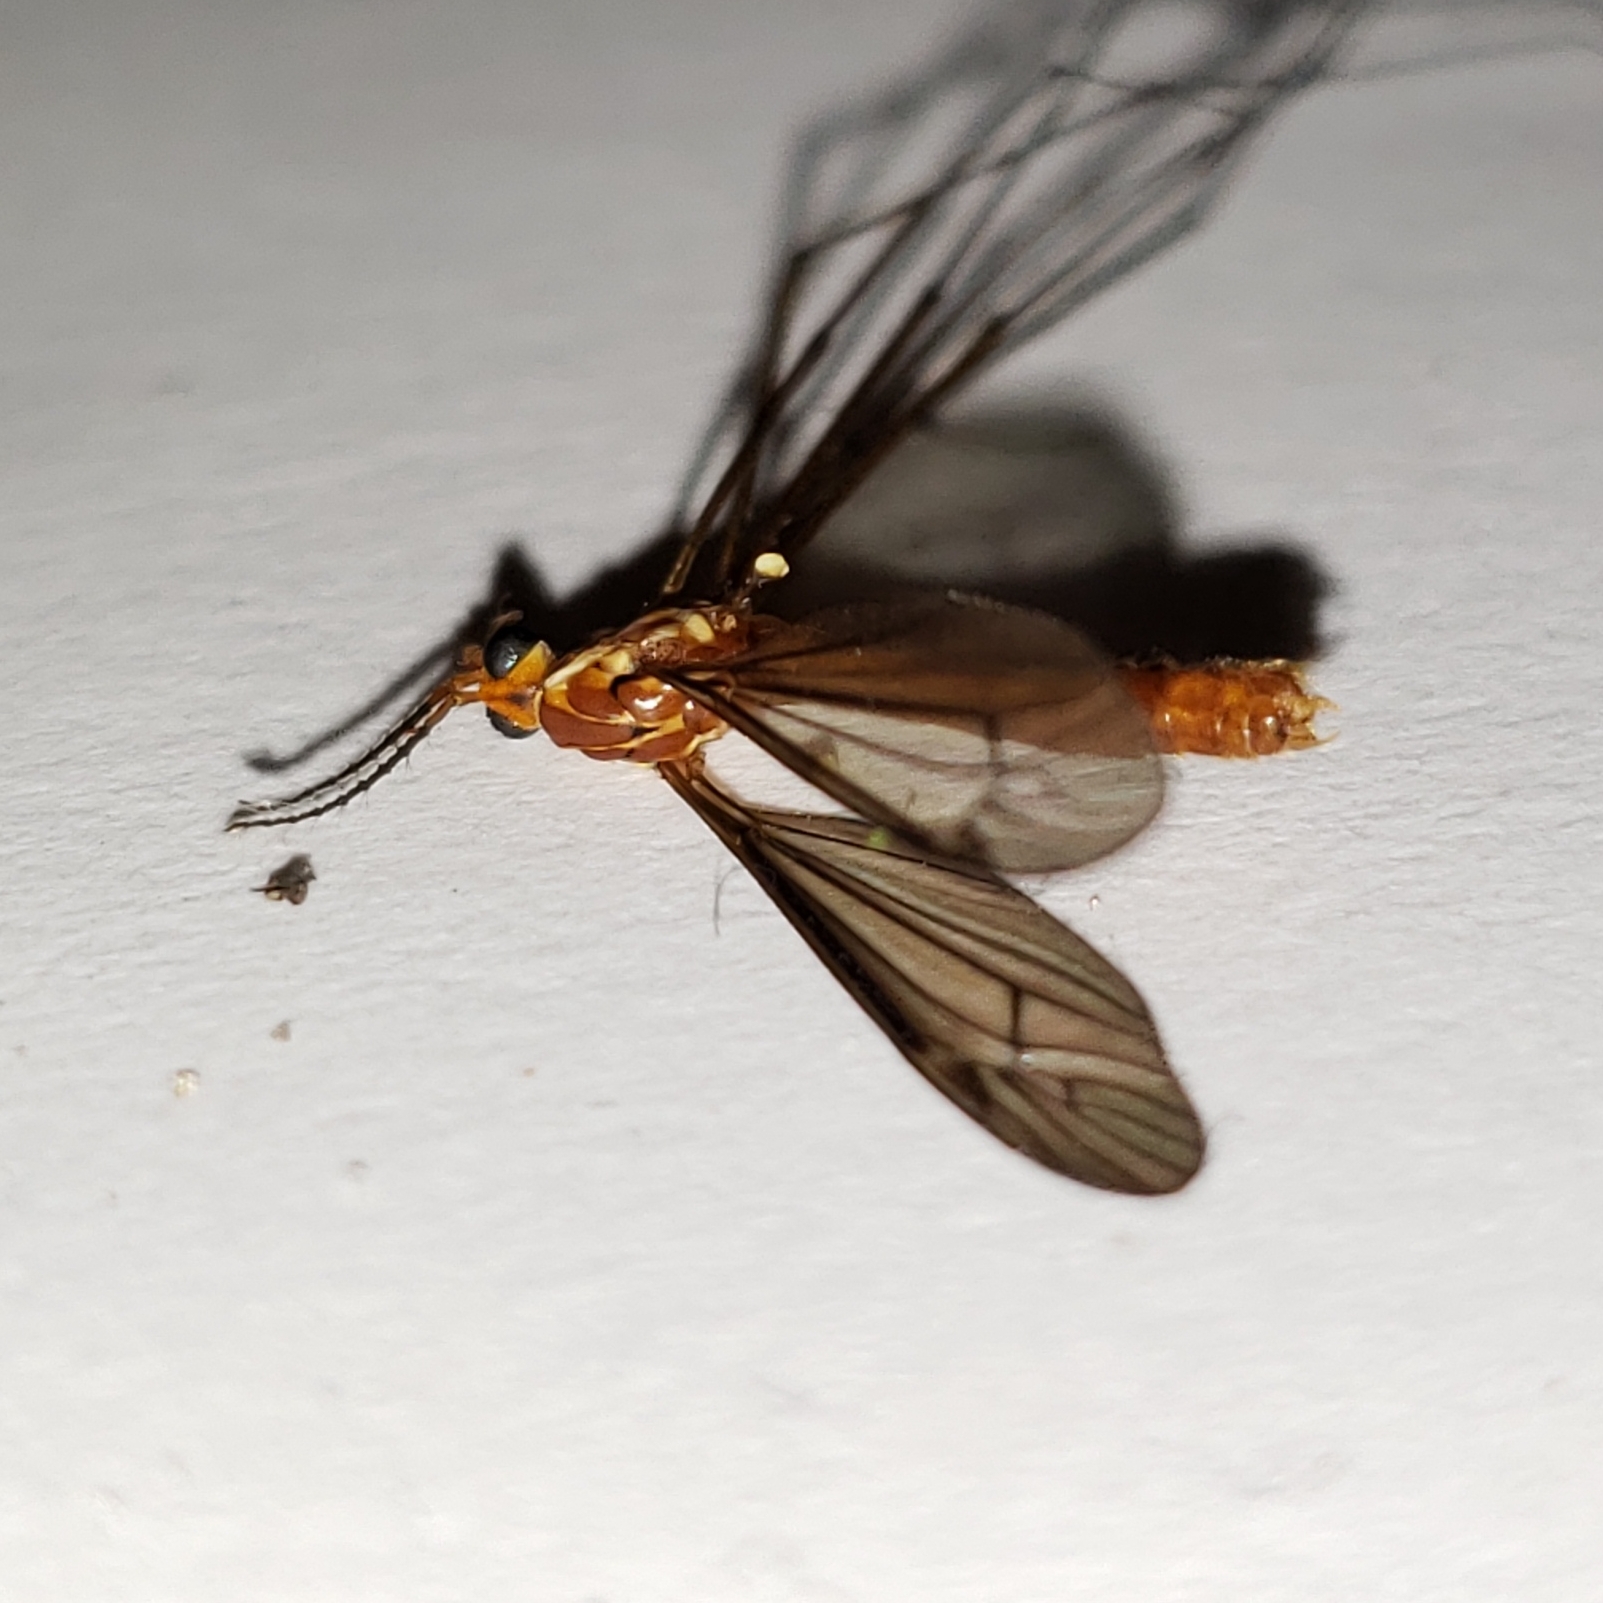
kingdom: Animalia
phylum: Arthropoda
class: Insecta
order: Diptera
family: Tipulidae
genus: Nephrotoma
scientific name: Nephrotoma suturalis
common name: Cranefly
